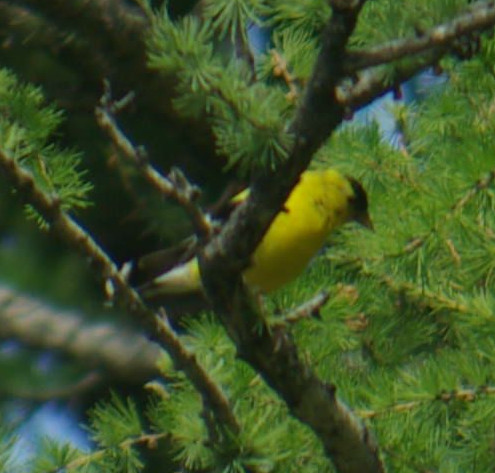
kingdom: Animalia
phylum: Chordata
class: Aves
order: Passeriformes
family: Fringillidae
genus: Spinus
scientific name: Spinus tristis
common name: American goldfinch
